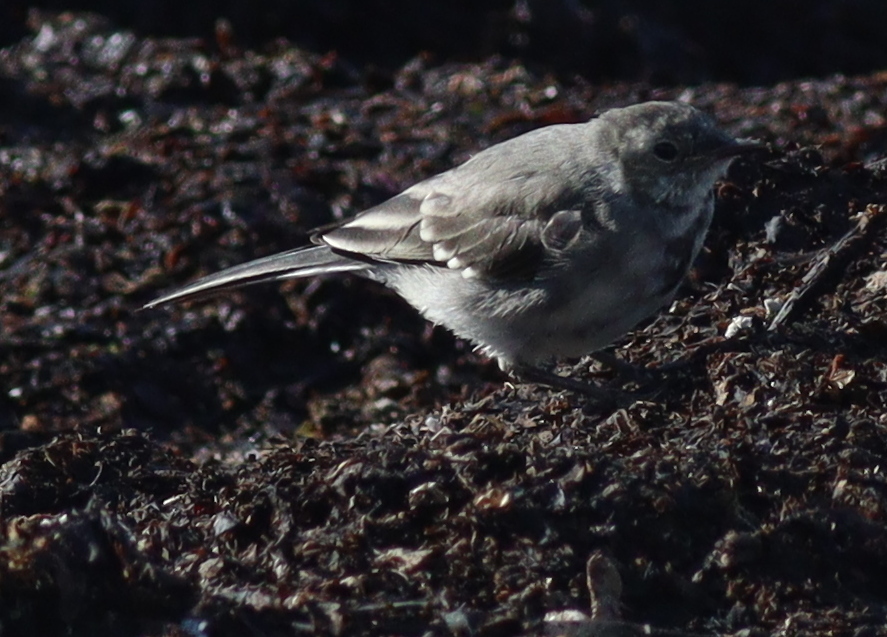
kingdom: Animalia
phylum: Chordata
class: Aves
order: Passeriformes
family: Motacillidae
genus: Motacilla
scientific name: Motacilla alba
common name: White wagtail
